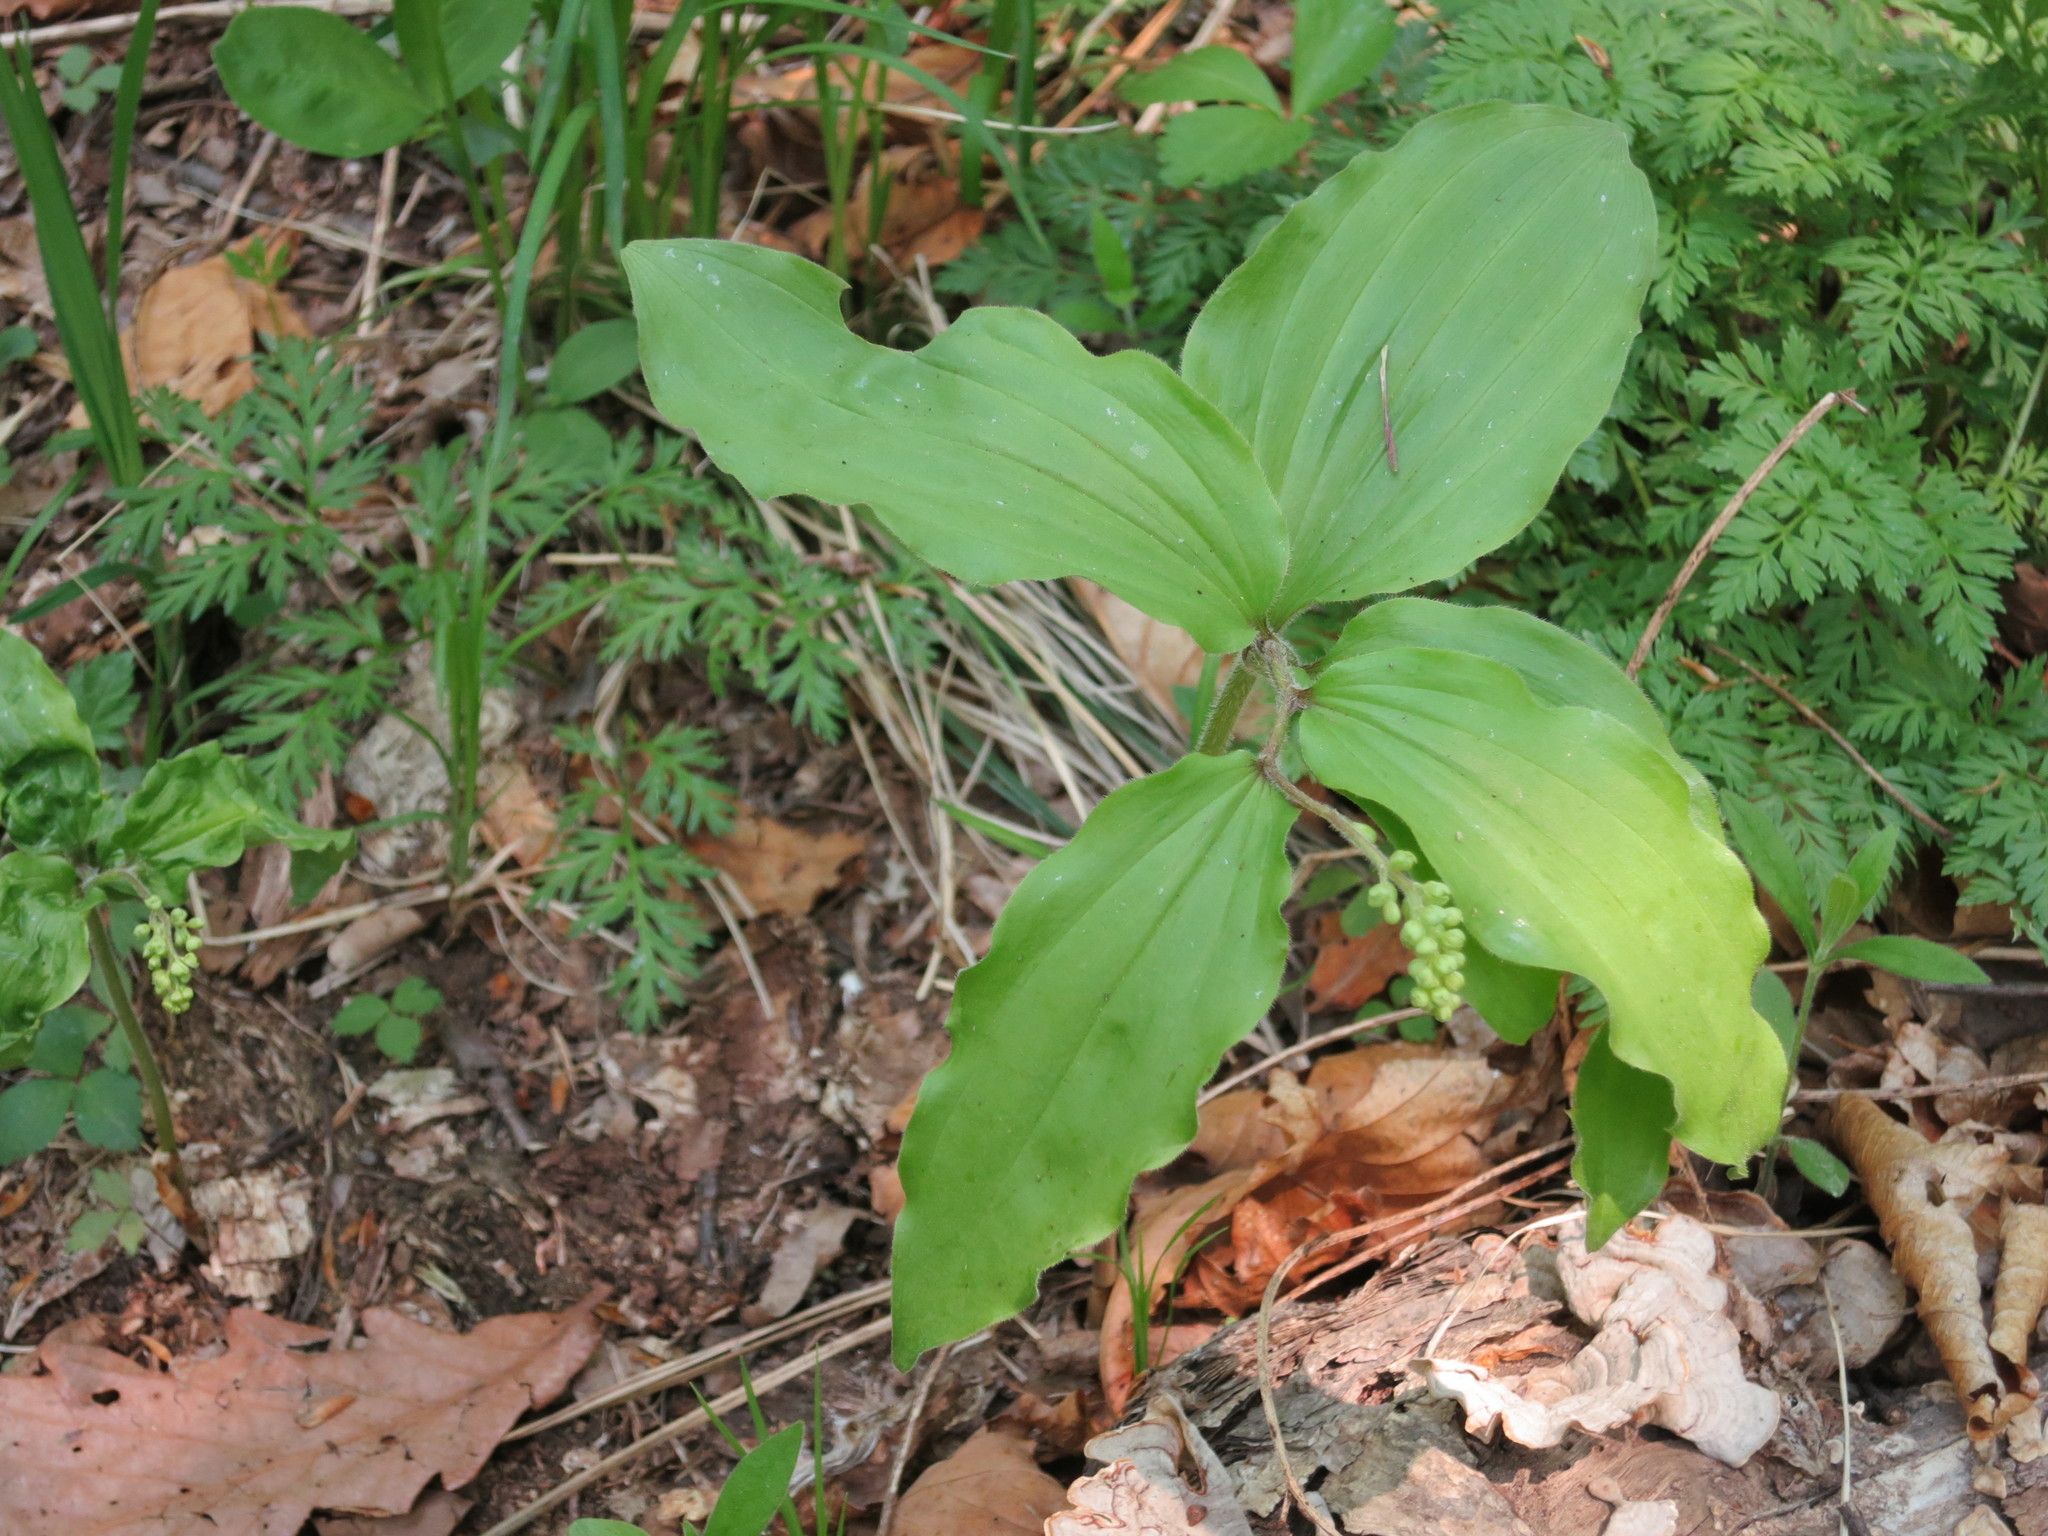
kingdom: Plantae
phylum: Tracheophyta
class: Liliopsida
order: Asparagales
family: Asparagaceae
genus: Maianthemum
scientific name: Maianthemum japonicum
